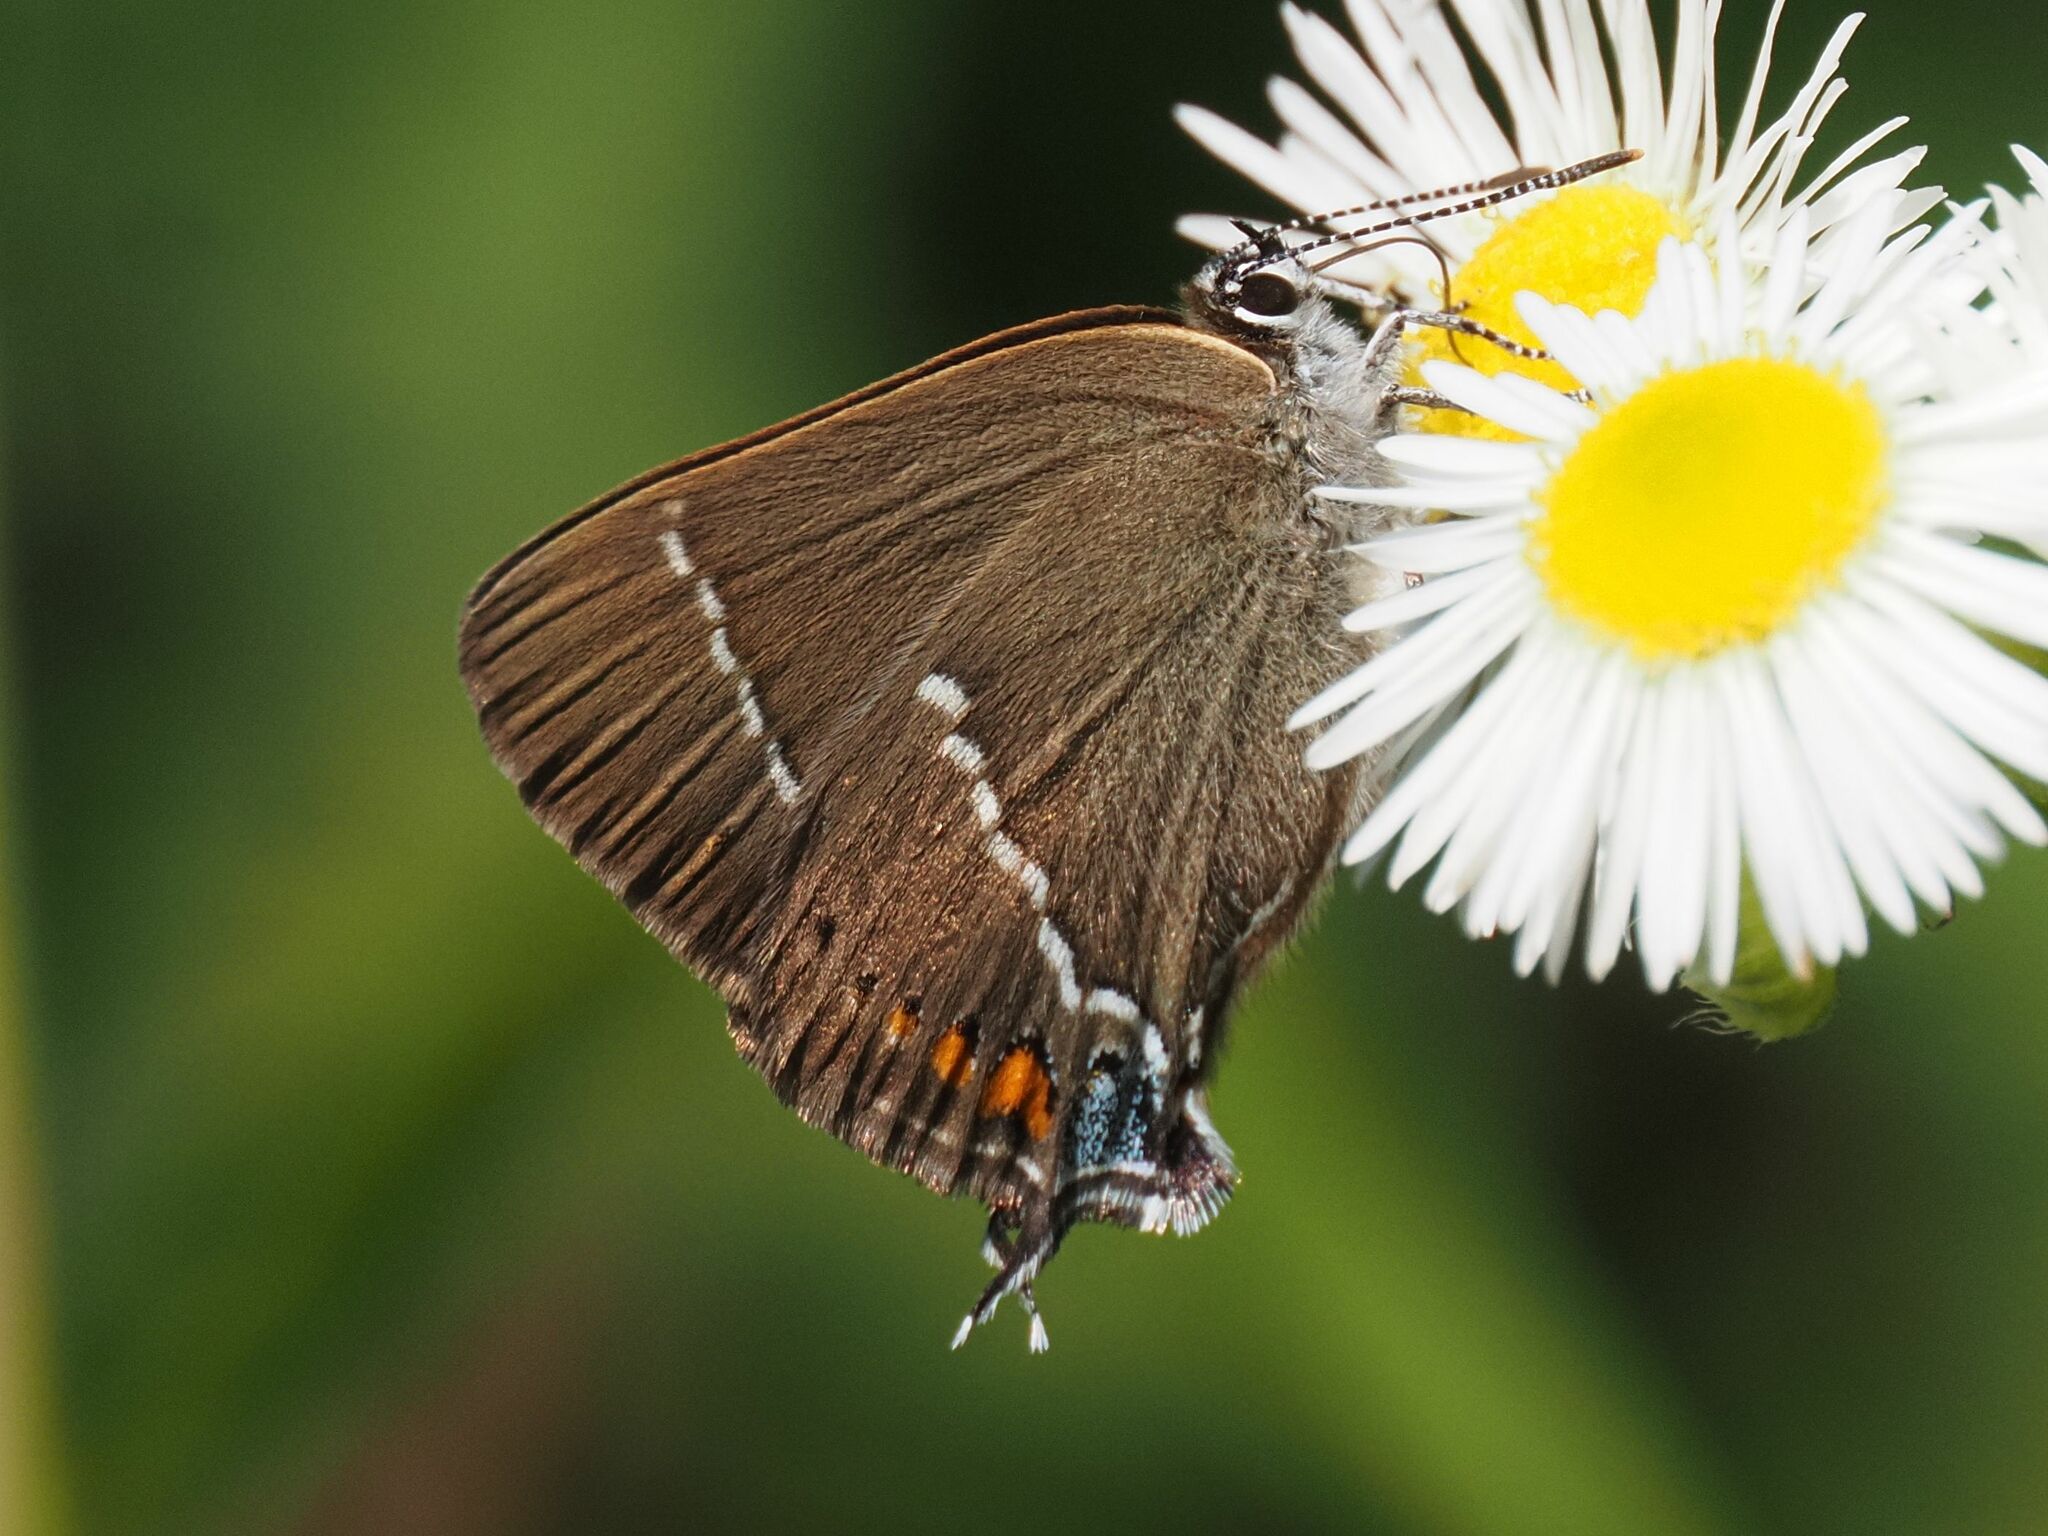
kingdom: Animalia
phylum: Arthropoda
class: Insecta
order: Lepidoptera
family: Lycaenidae
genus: Tuttiola
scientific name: Tuttiola spini
